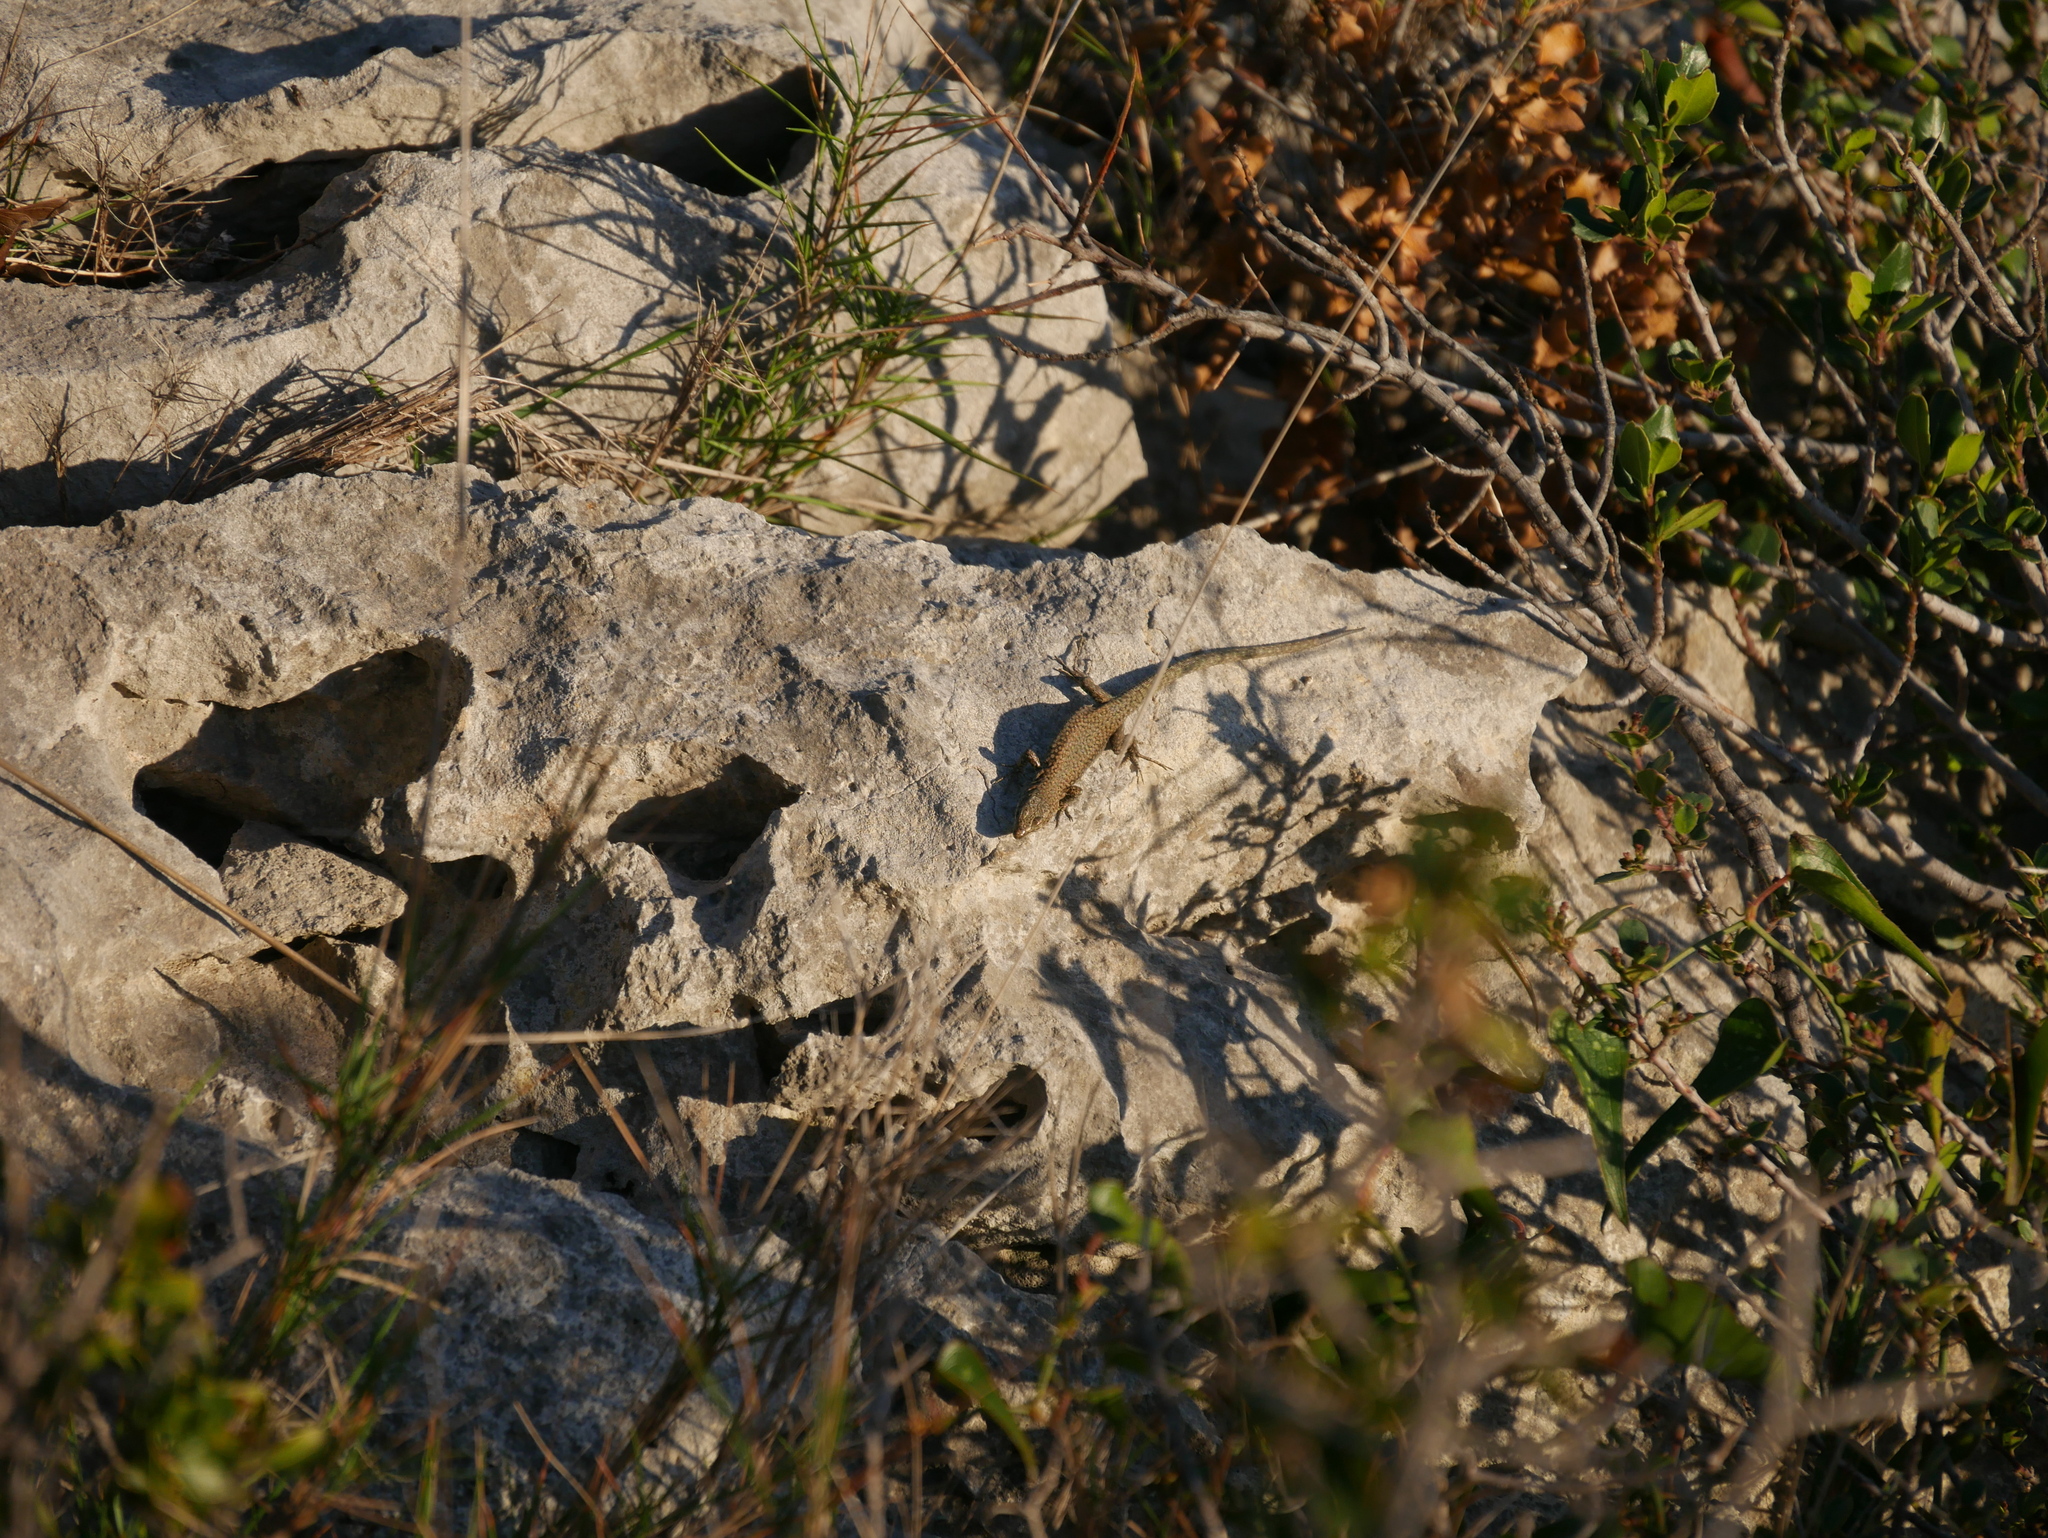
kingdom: Animalia
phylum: Chordata
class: Squamata
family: Lacertidae
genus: Podarcis
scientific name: Podarcis liolepis
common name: Catalonian wall lizard
